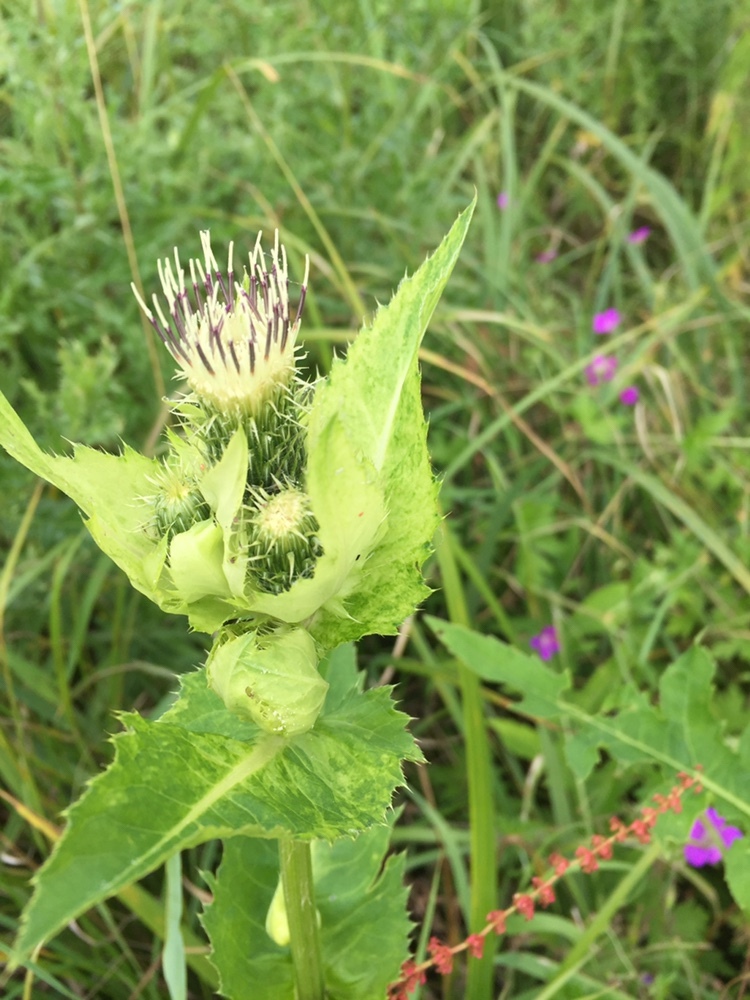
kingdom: Plantae
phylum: Tracheophyta
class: Magnoliopsida
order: Asterales
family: Asteraceae
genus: Cirsium
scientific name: Cirsium oleraceum
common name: Cabbage thistle
